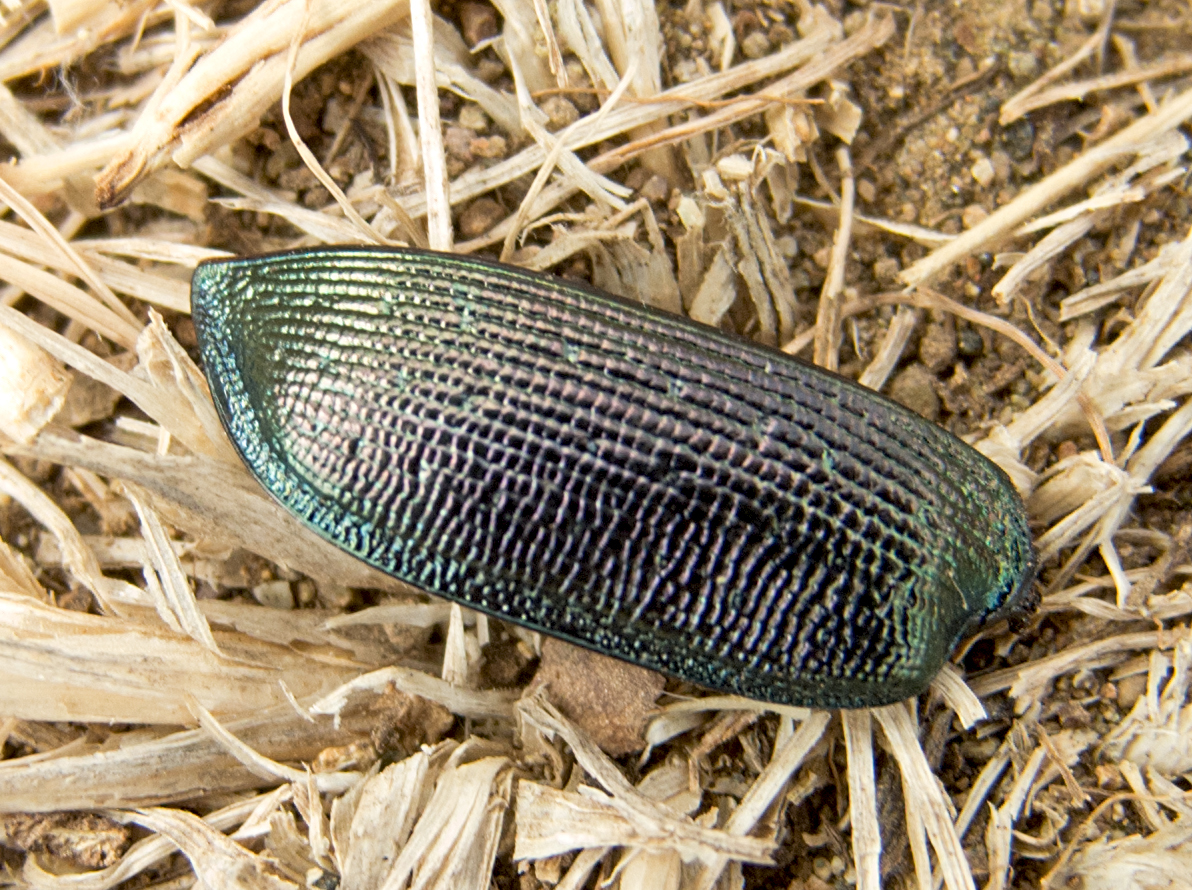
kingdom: Animalia
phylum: Arthropoda
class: Insecta
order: Coleoptera
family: Carabidae
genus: Calosoma
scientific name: Calosoma inquisitor
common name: Caterpillar-hunter
